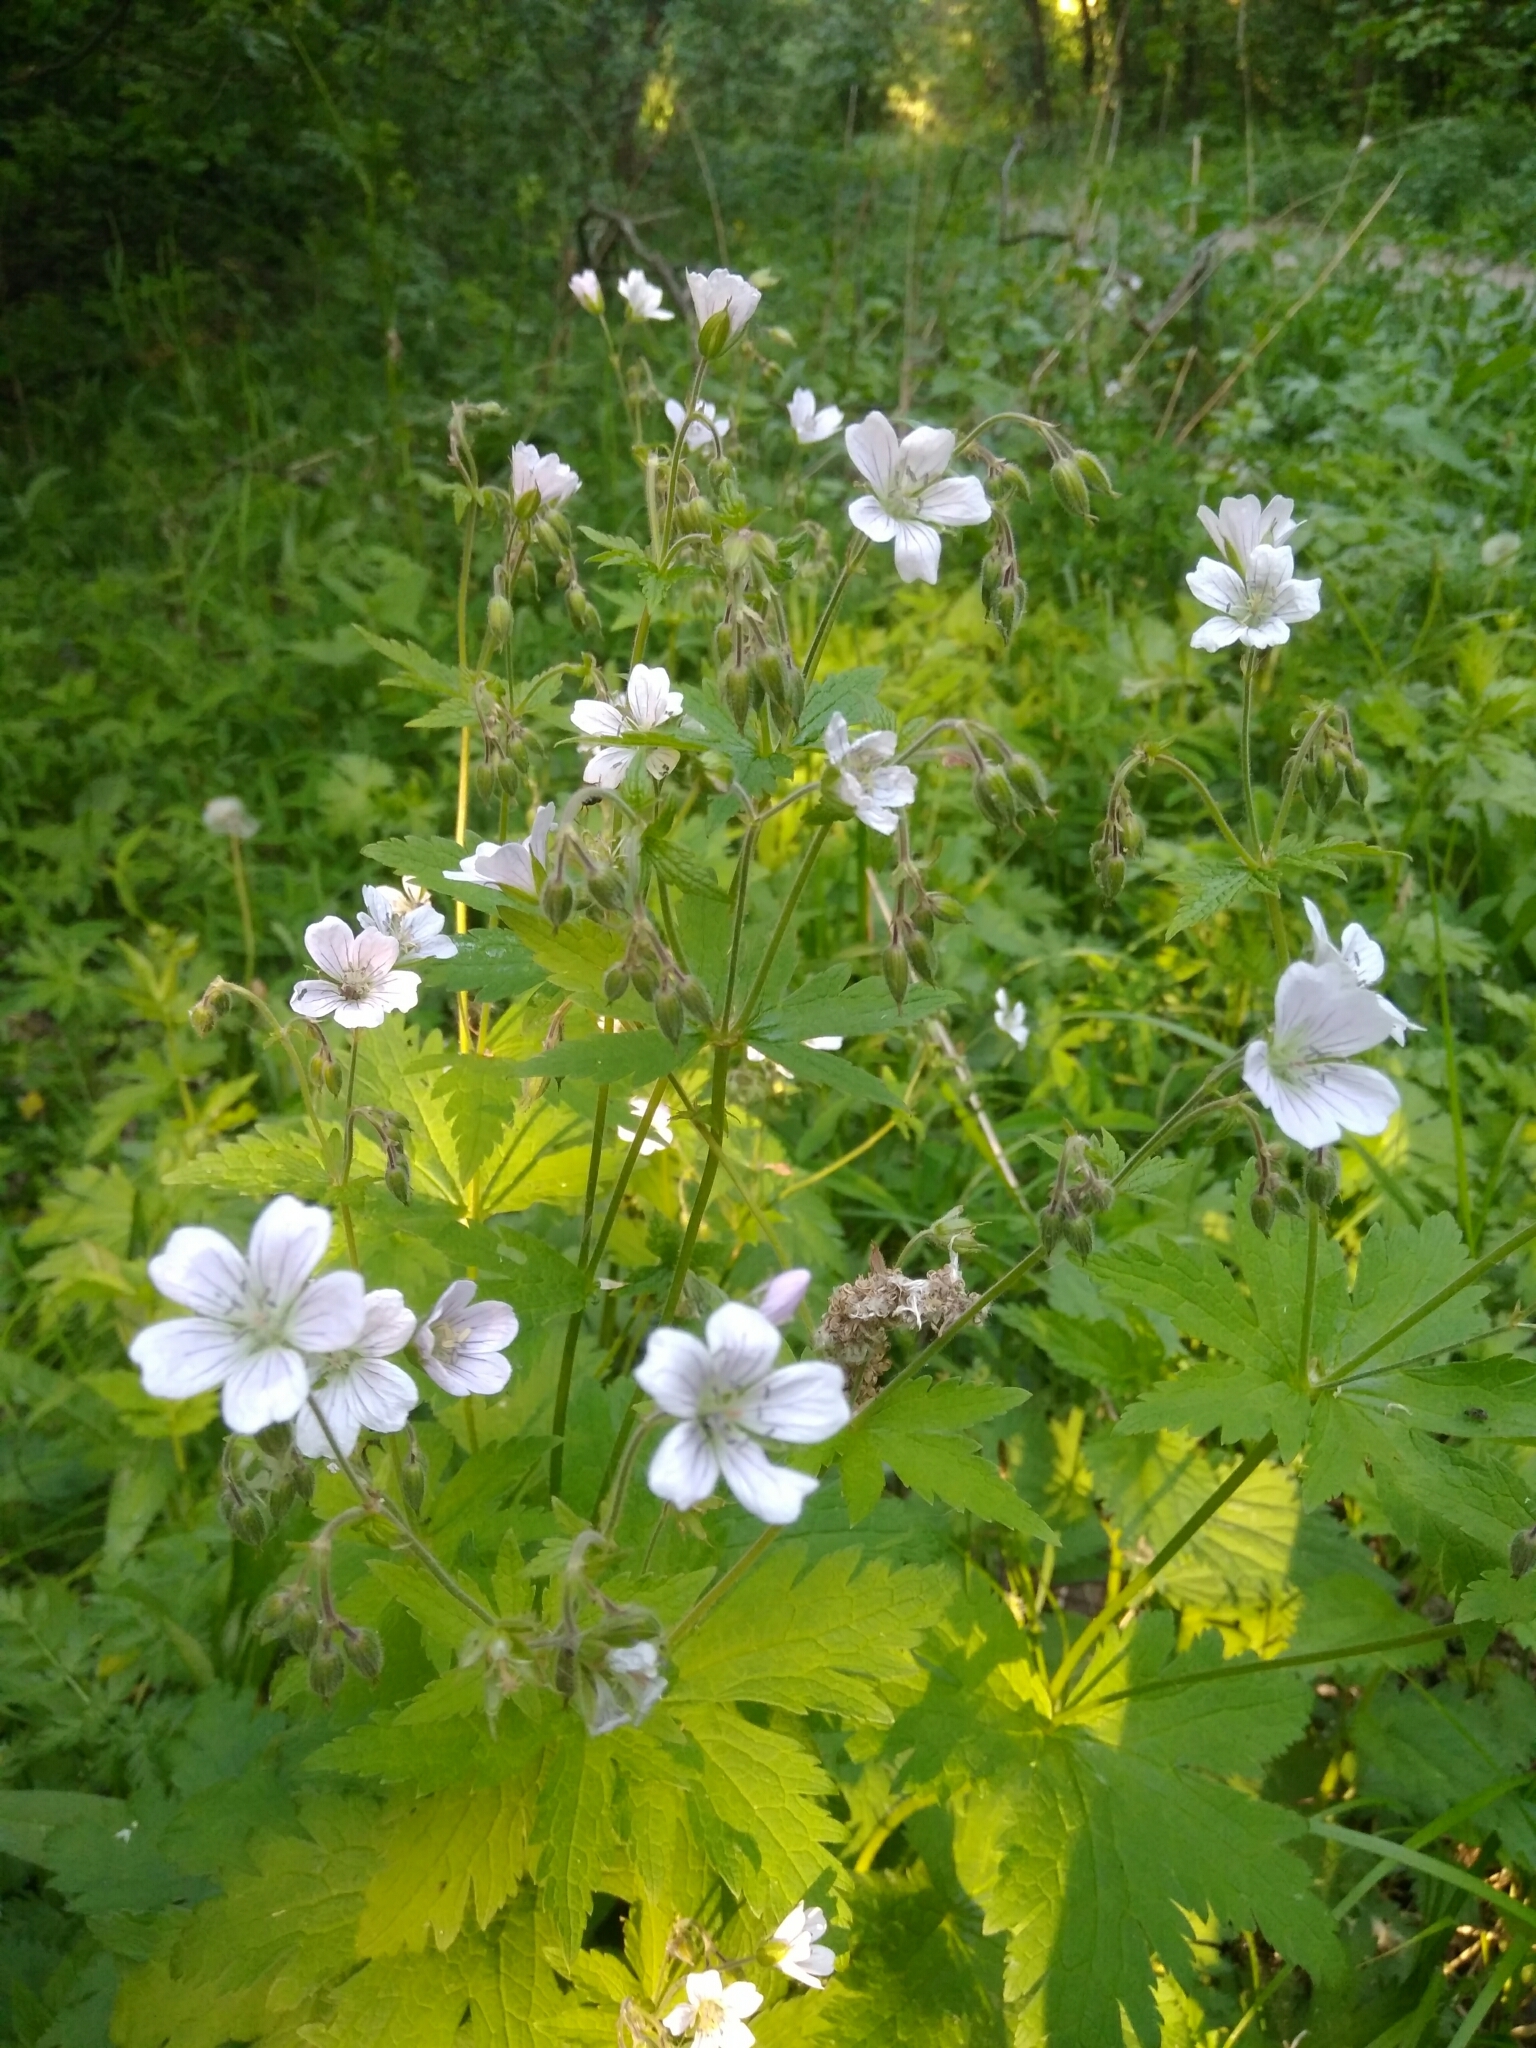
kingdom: Plantae
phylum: Tracheophyta
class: Magnoliopsida
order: Geraniales
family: Geraniaceae
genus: Geranium
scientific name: Geranium sylvaticum
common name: Wood crane's-bill
